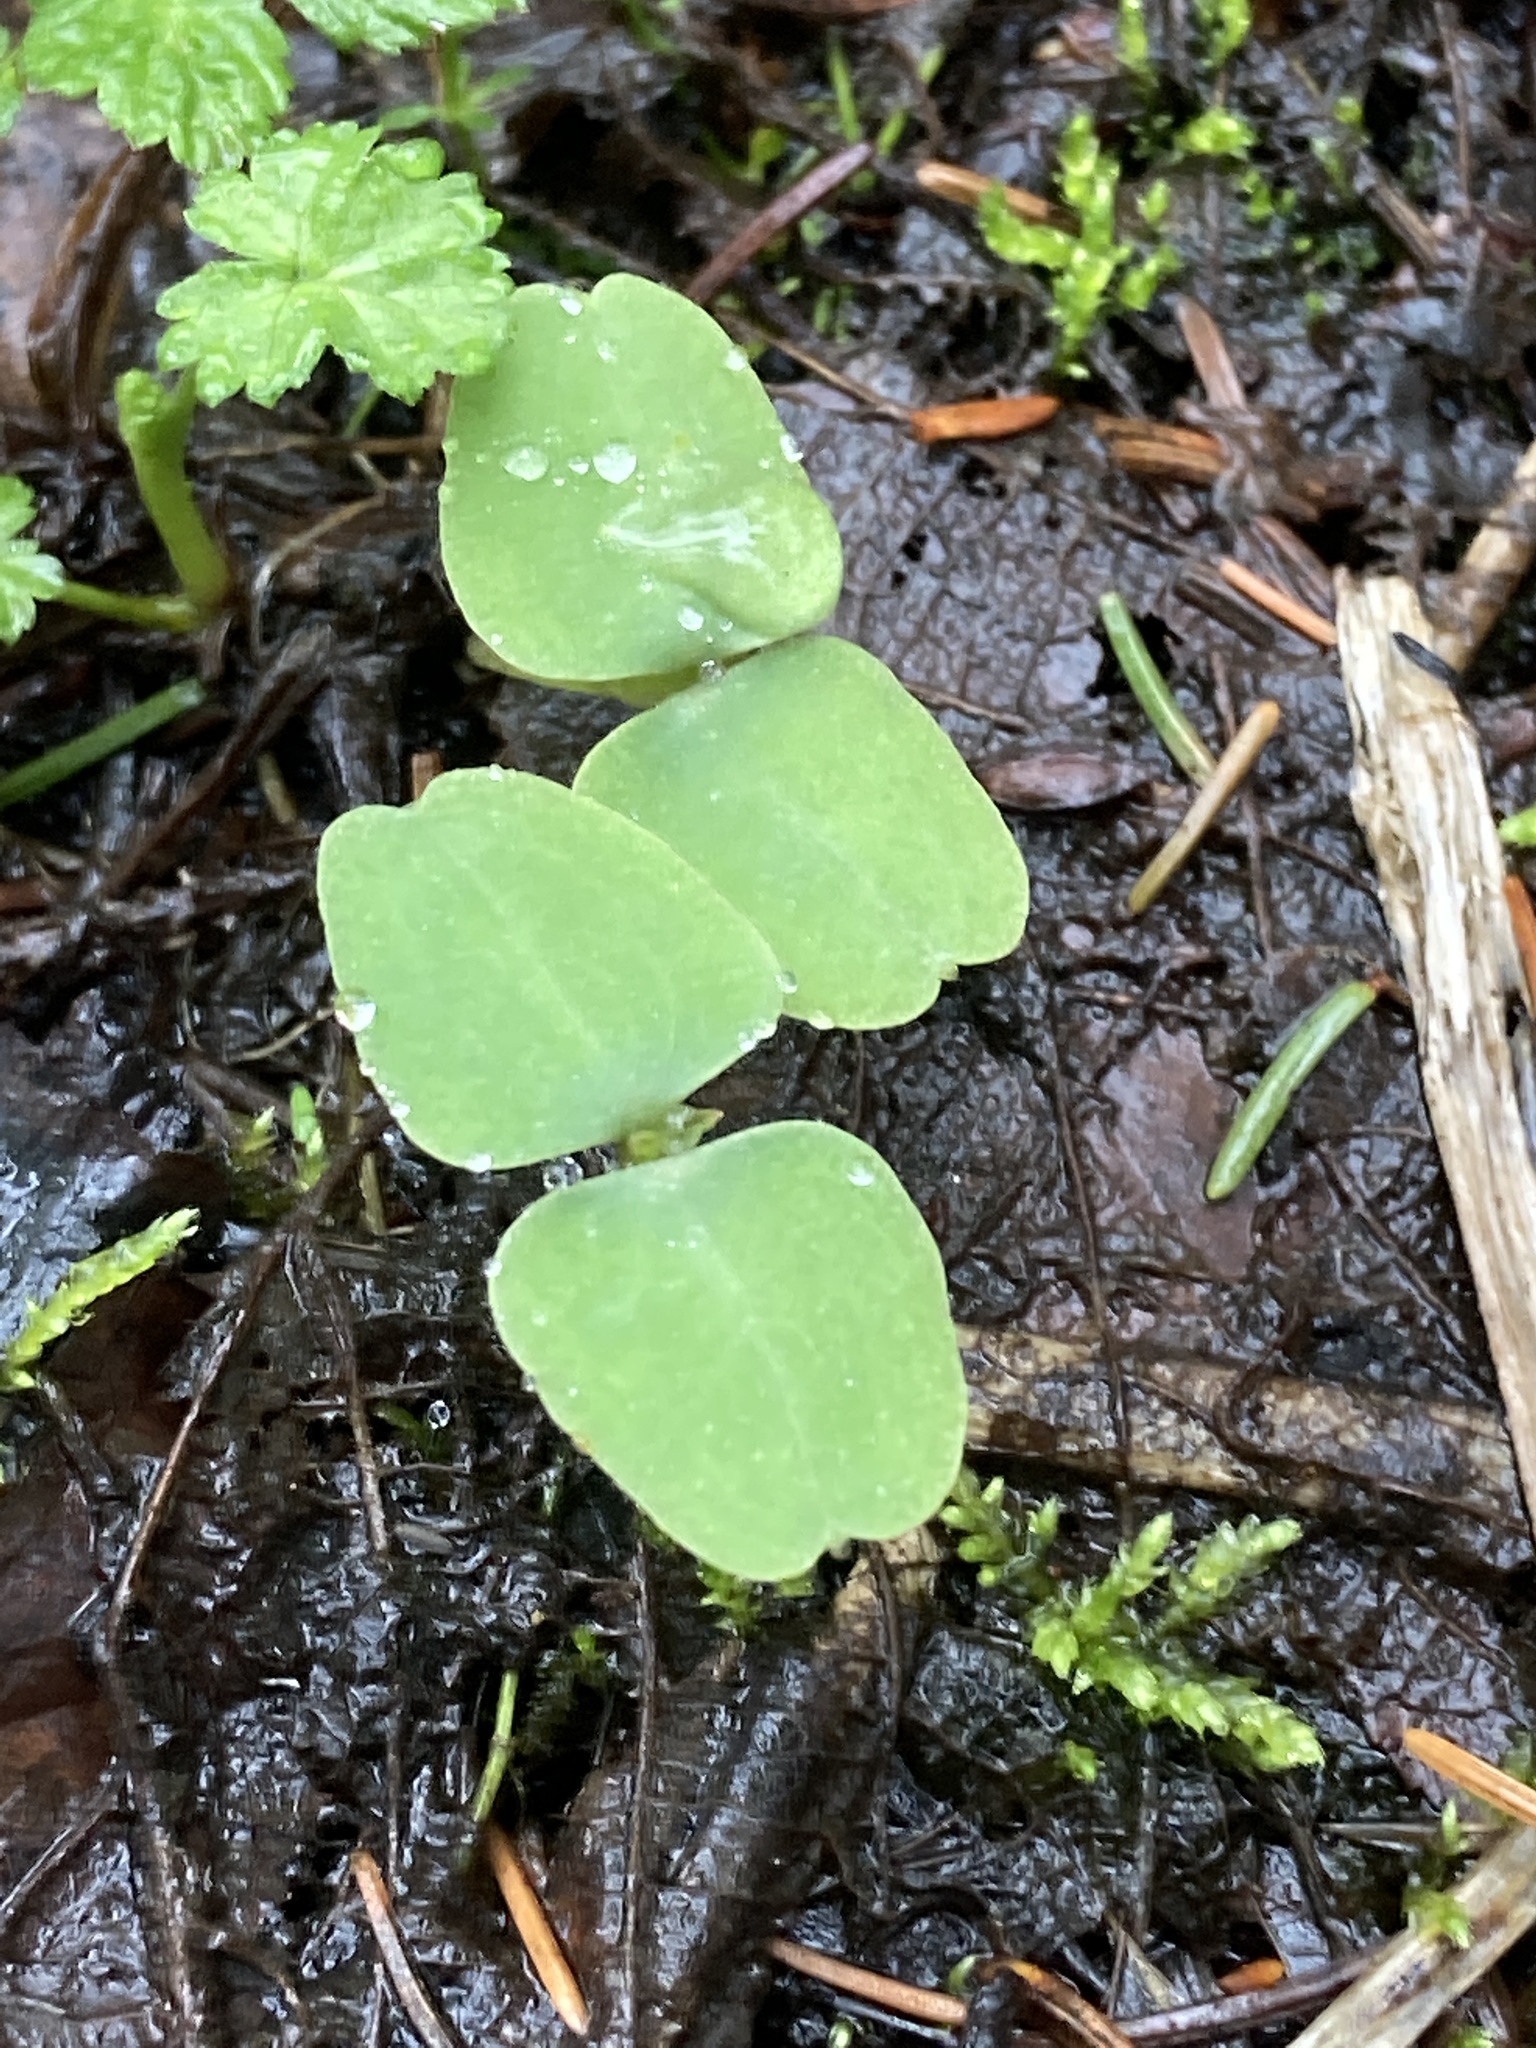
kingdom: Plantae
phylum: Tracheophyta
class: Magnoliopsida
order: Ericales
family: Balsaminaceae
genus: Impatiens
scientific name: Impatiens capensis
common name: Orange balsam
